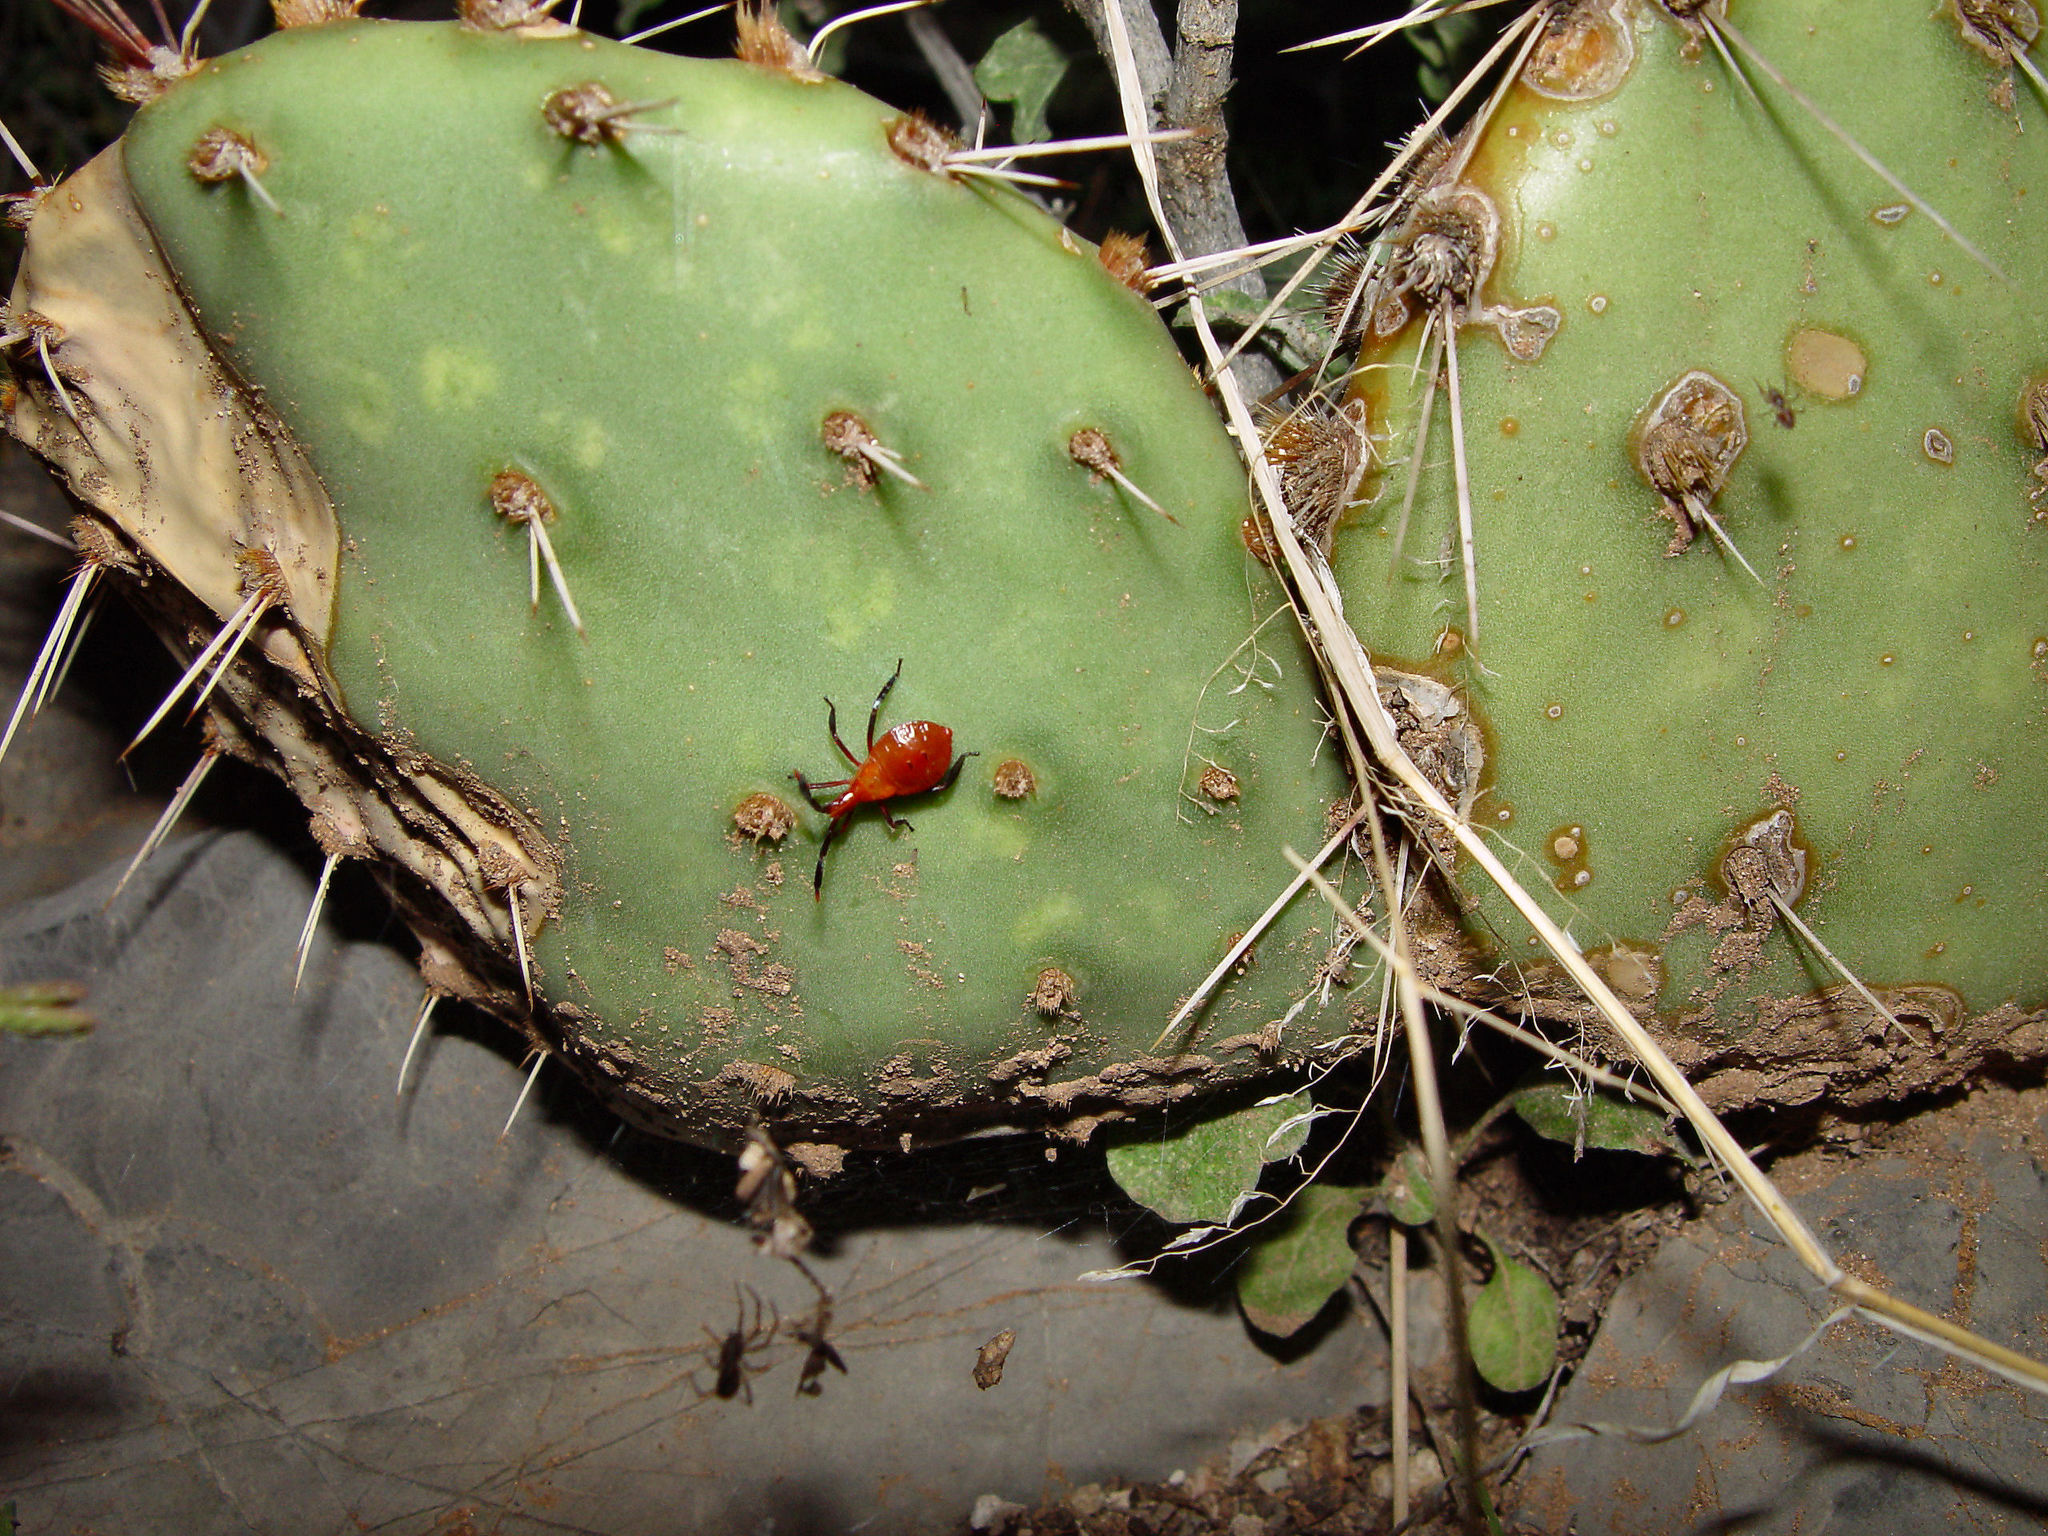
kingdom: Animalia
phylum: Arthropoda
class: Insecta
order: Hemiptera
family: Coreidae
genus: Chelinidea
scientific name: Chelinidea vittiger
